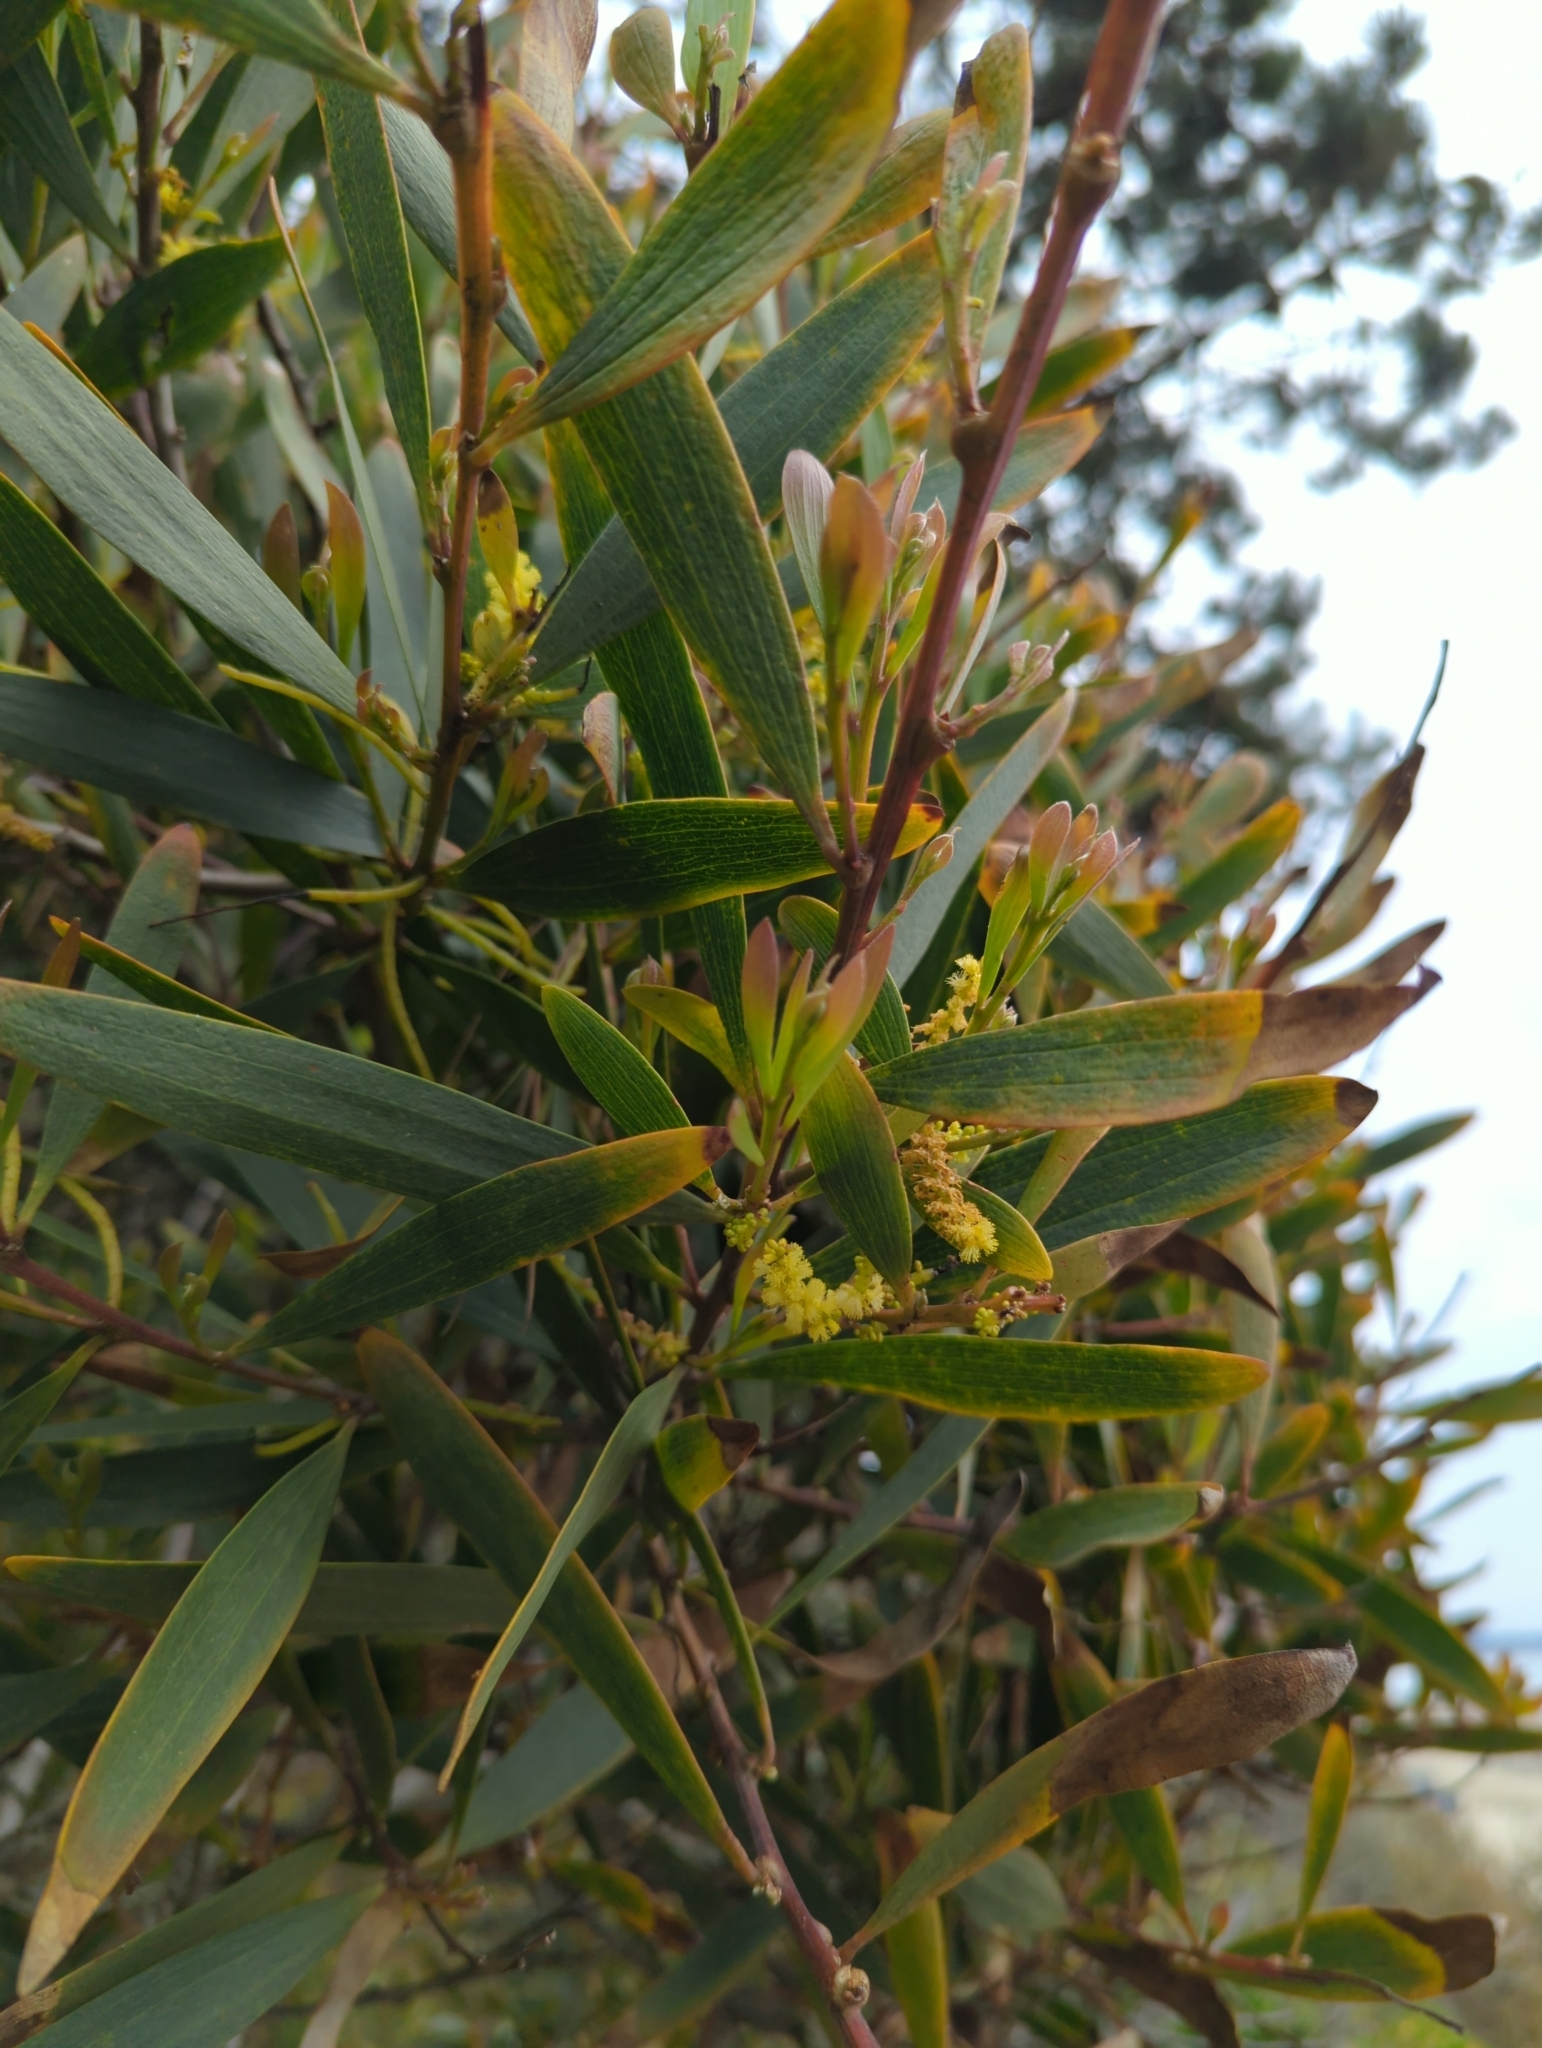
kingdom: Plantae
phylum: Tracheophyta
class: Magnoliopsida
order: Fabales
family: Fabaceae
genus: Acacia
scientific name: Acacia longifolia
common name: Sydney golden wattle
